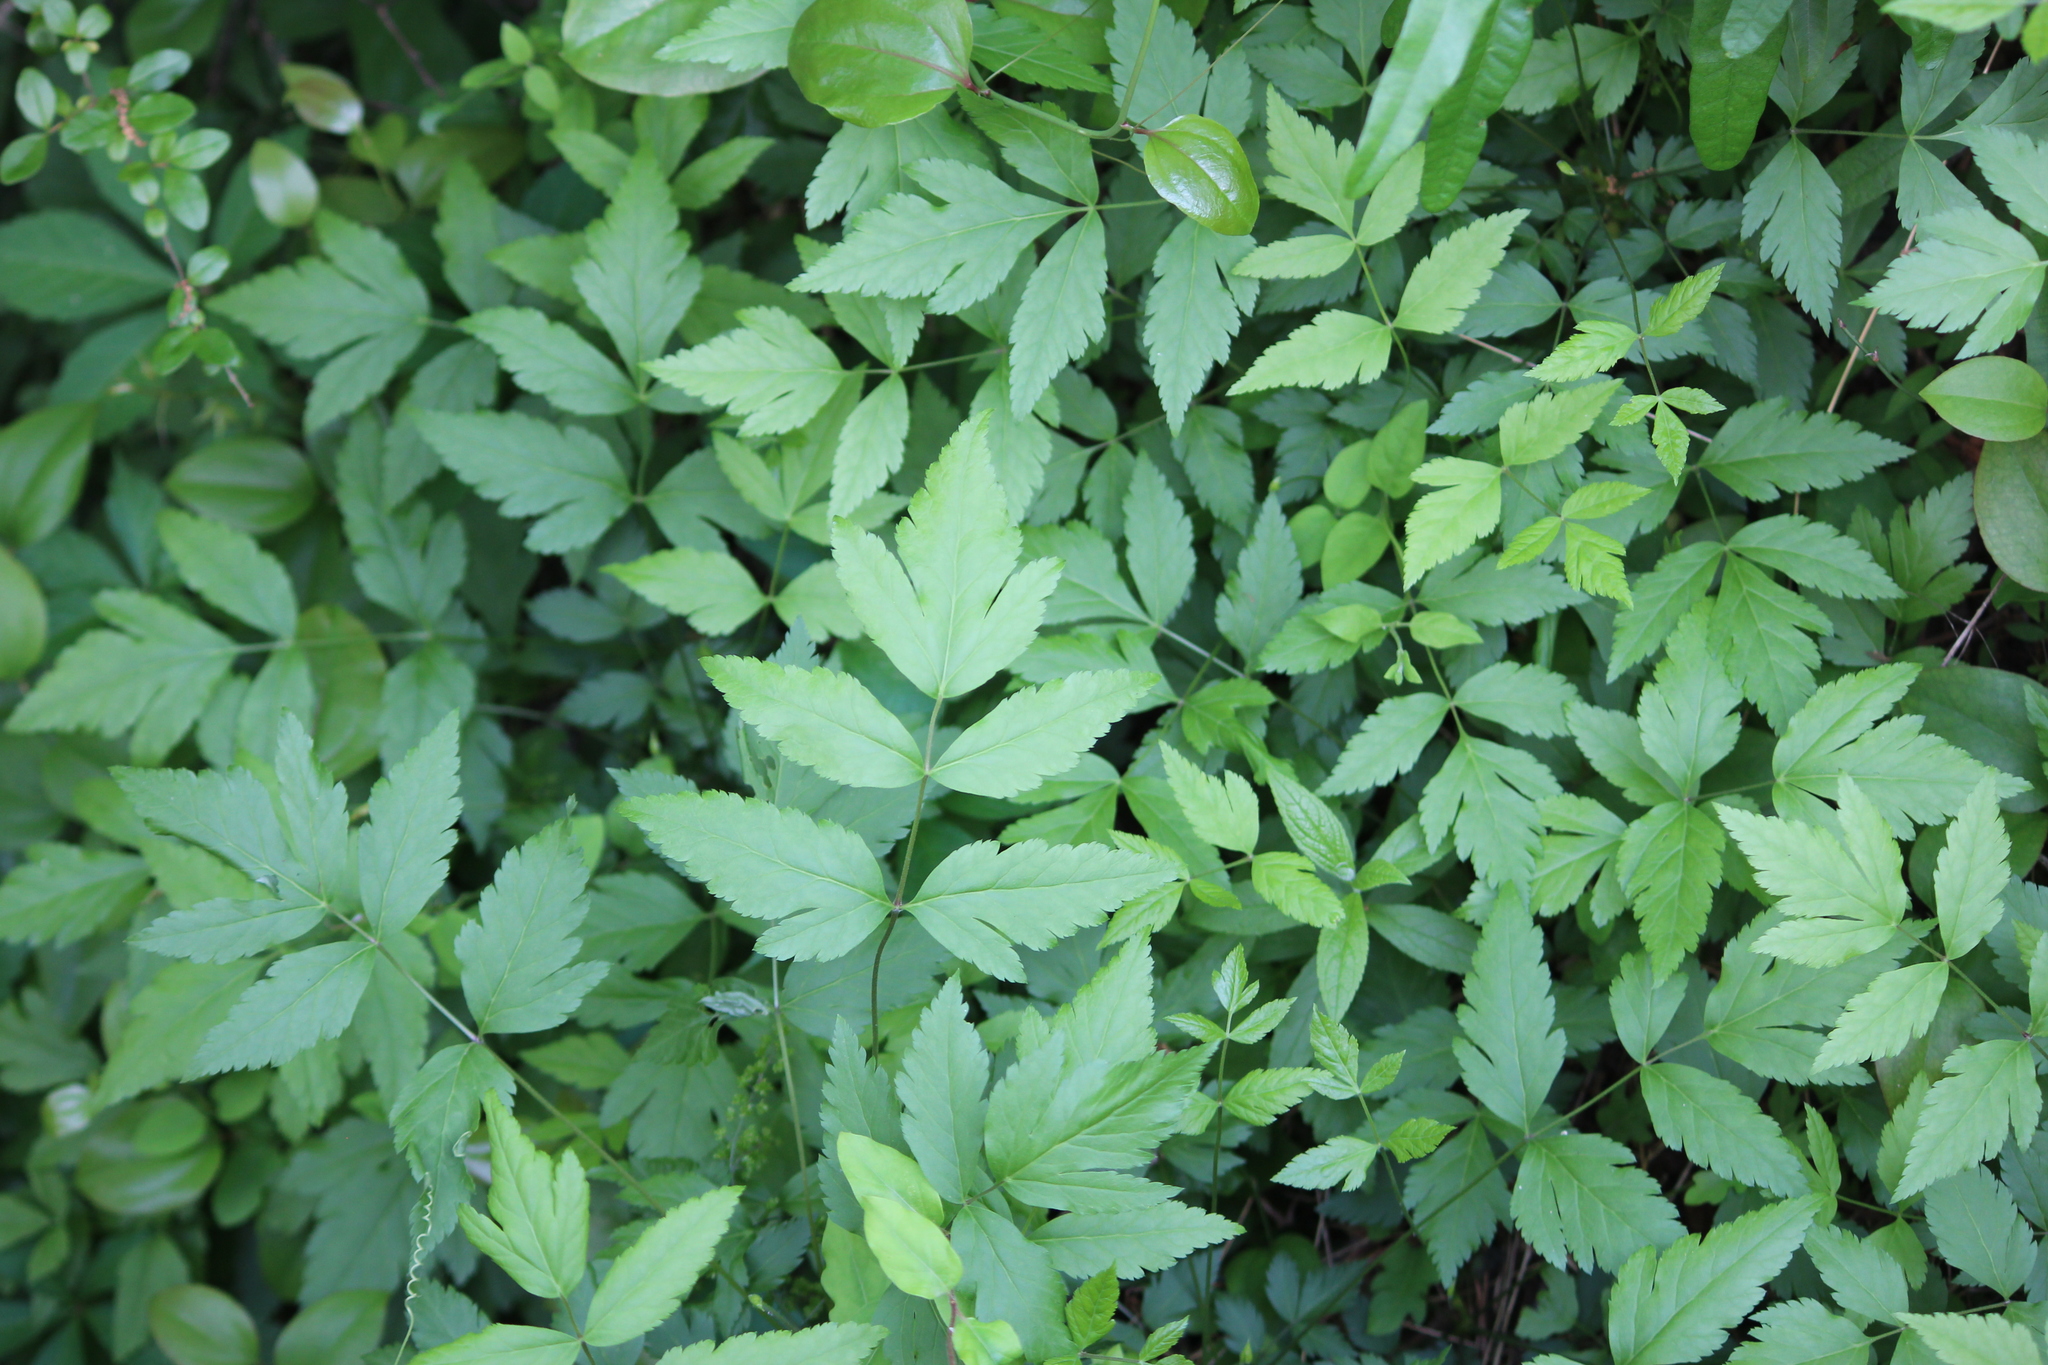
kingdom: Plantae
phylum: Tracheophyta
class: Magnoliopsida
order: Ranunculales
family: Ranunculaceae
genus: Xanthorhiza
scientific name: Xanthorhiza simplicissima
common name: Yellowroot
